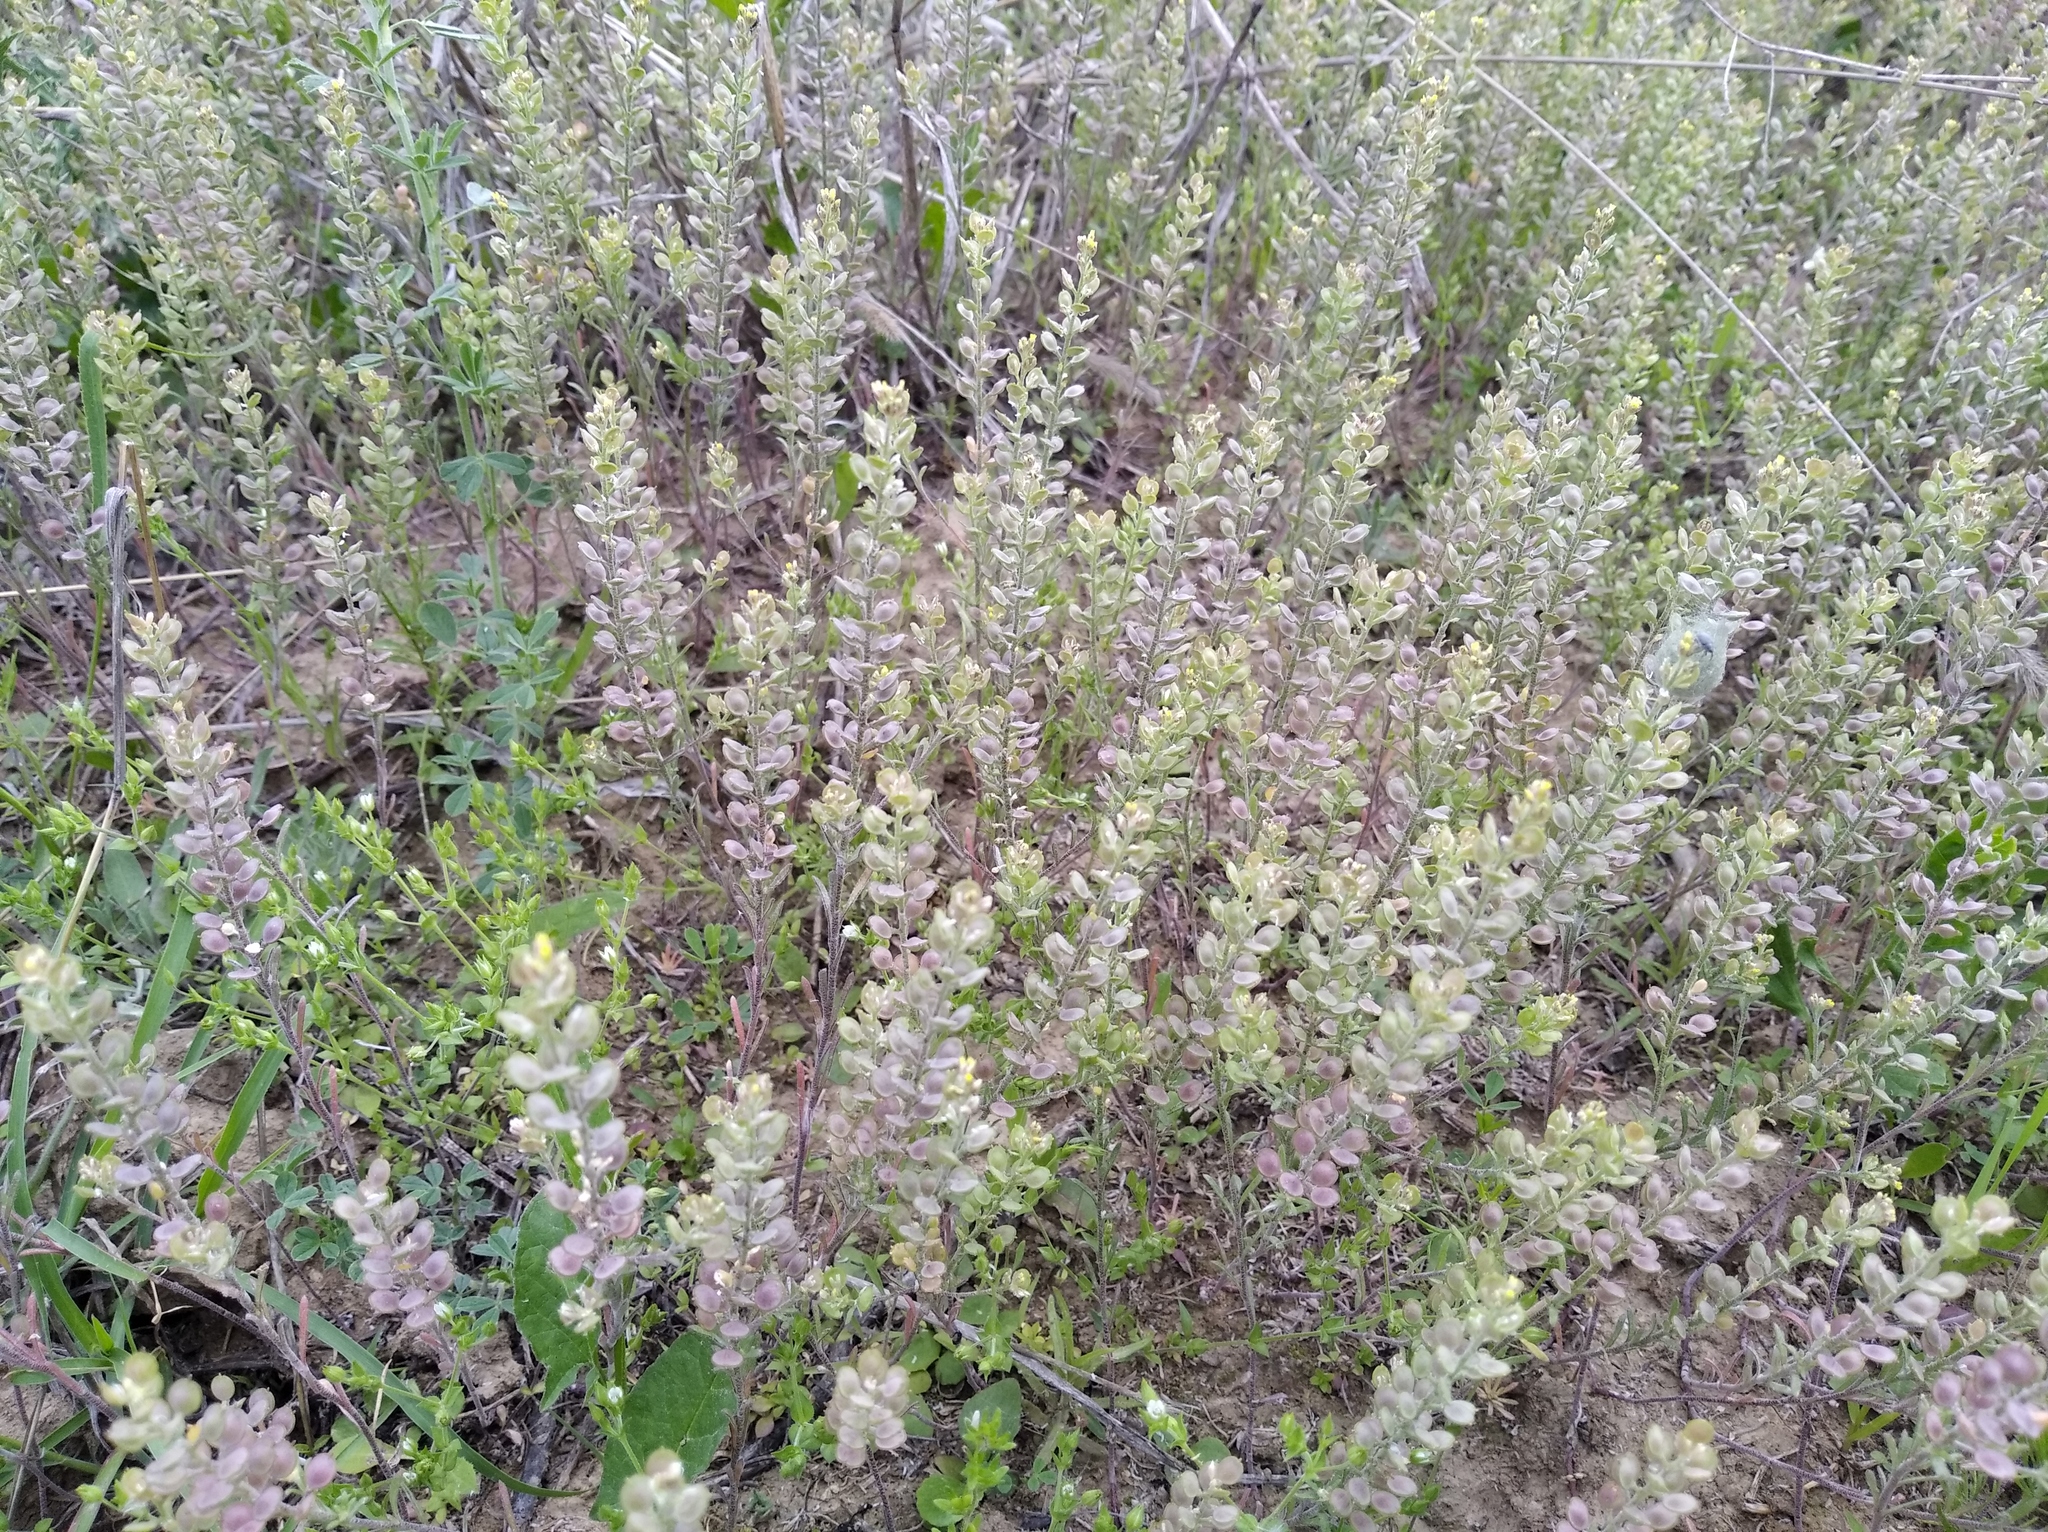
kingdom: Plantae
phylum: Tracheophyta
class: Magnoliopsida
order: Brassicales
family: Brassicaceae
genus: Alyssum
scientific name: Alyssum turkestanicum
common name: Desert alyssum
